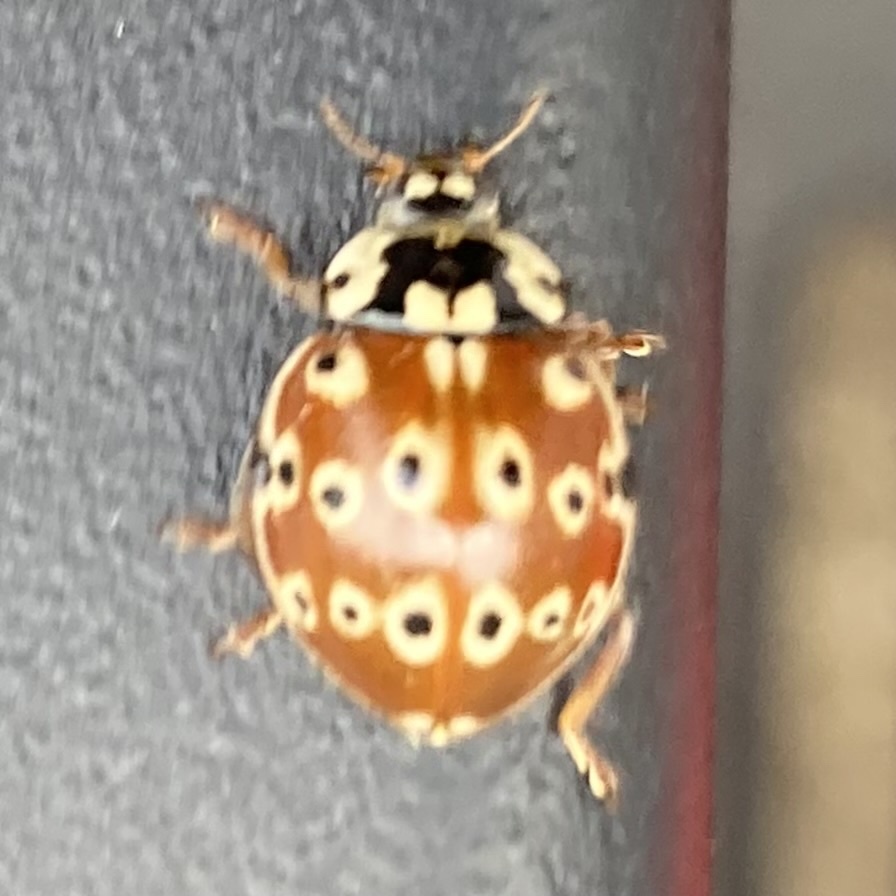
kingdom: Animalia
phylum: Arthropoda
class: Insecta
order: Coleoptera
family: Coccinellidae
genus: Anatis
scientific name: Anatis mali
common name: Eye-spotted lady beetle
